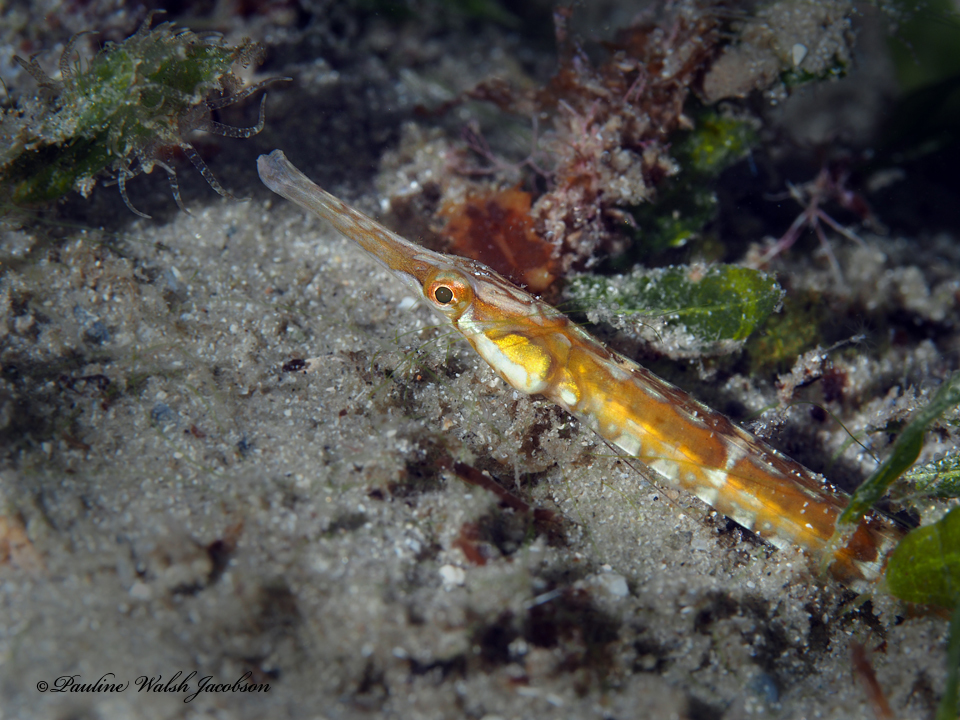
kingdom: Animalia
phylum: Chordata
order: Syngnathiformes
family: Syngnathidae
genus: Syngnathus
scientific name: Syngnathus pelagicus
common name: Sargassum pipefish
